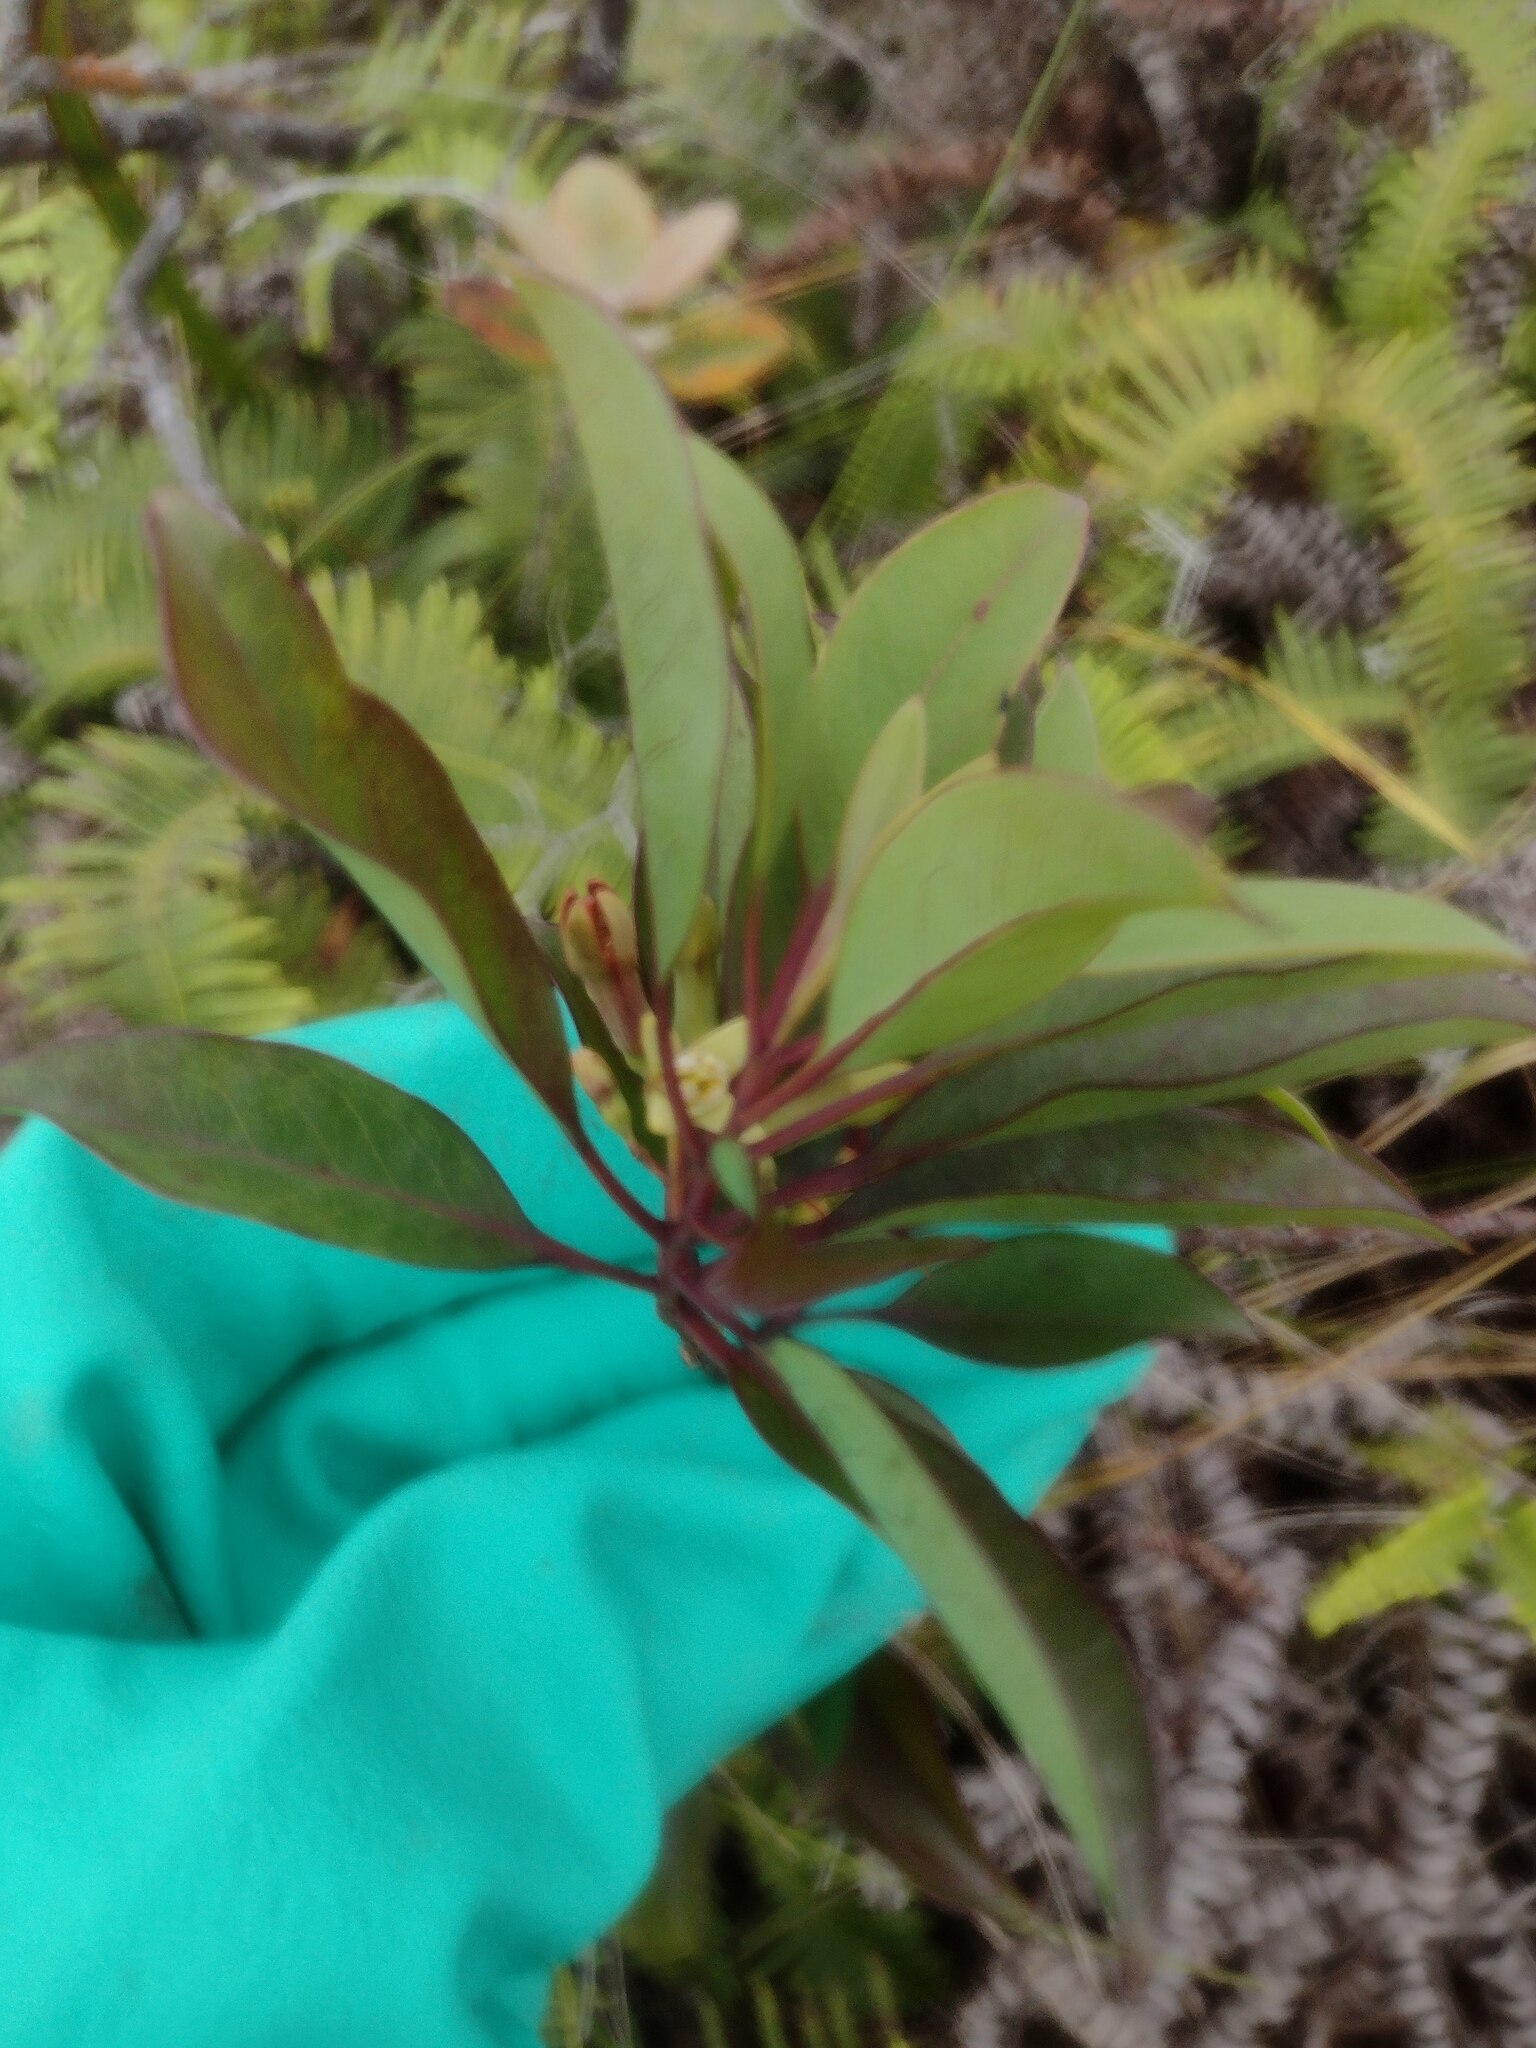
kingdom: Plantae
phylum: Tracheophyta
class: Magnoliopsida
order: Santalales
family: Santalaceae
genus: Santalum
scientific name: Santalum freycinetianum
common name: Lanai sandalwood
